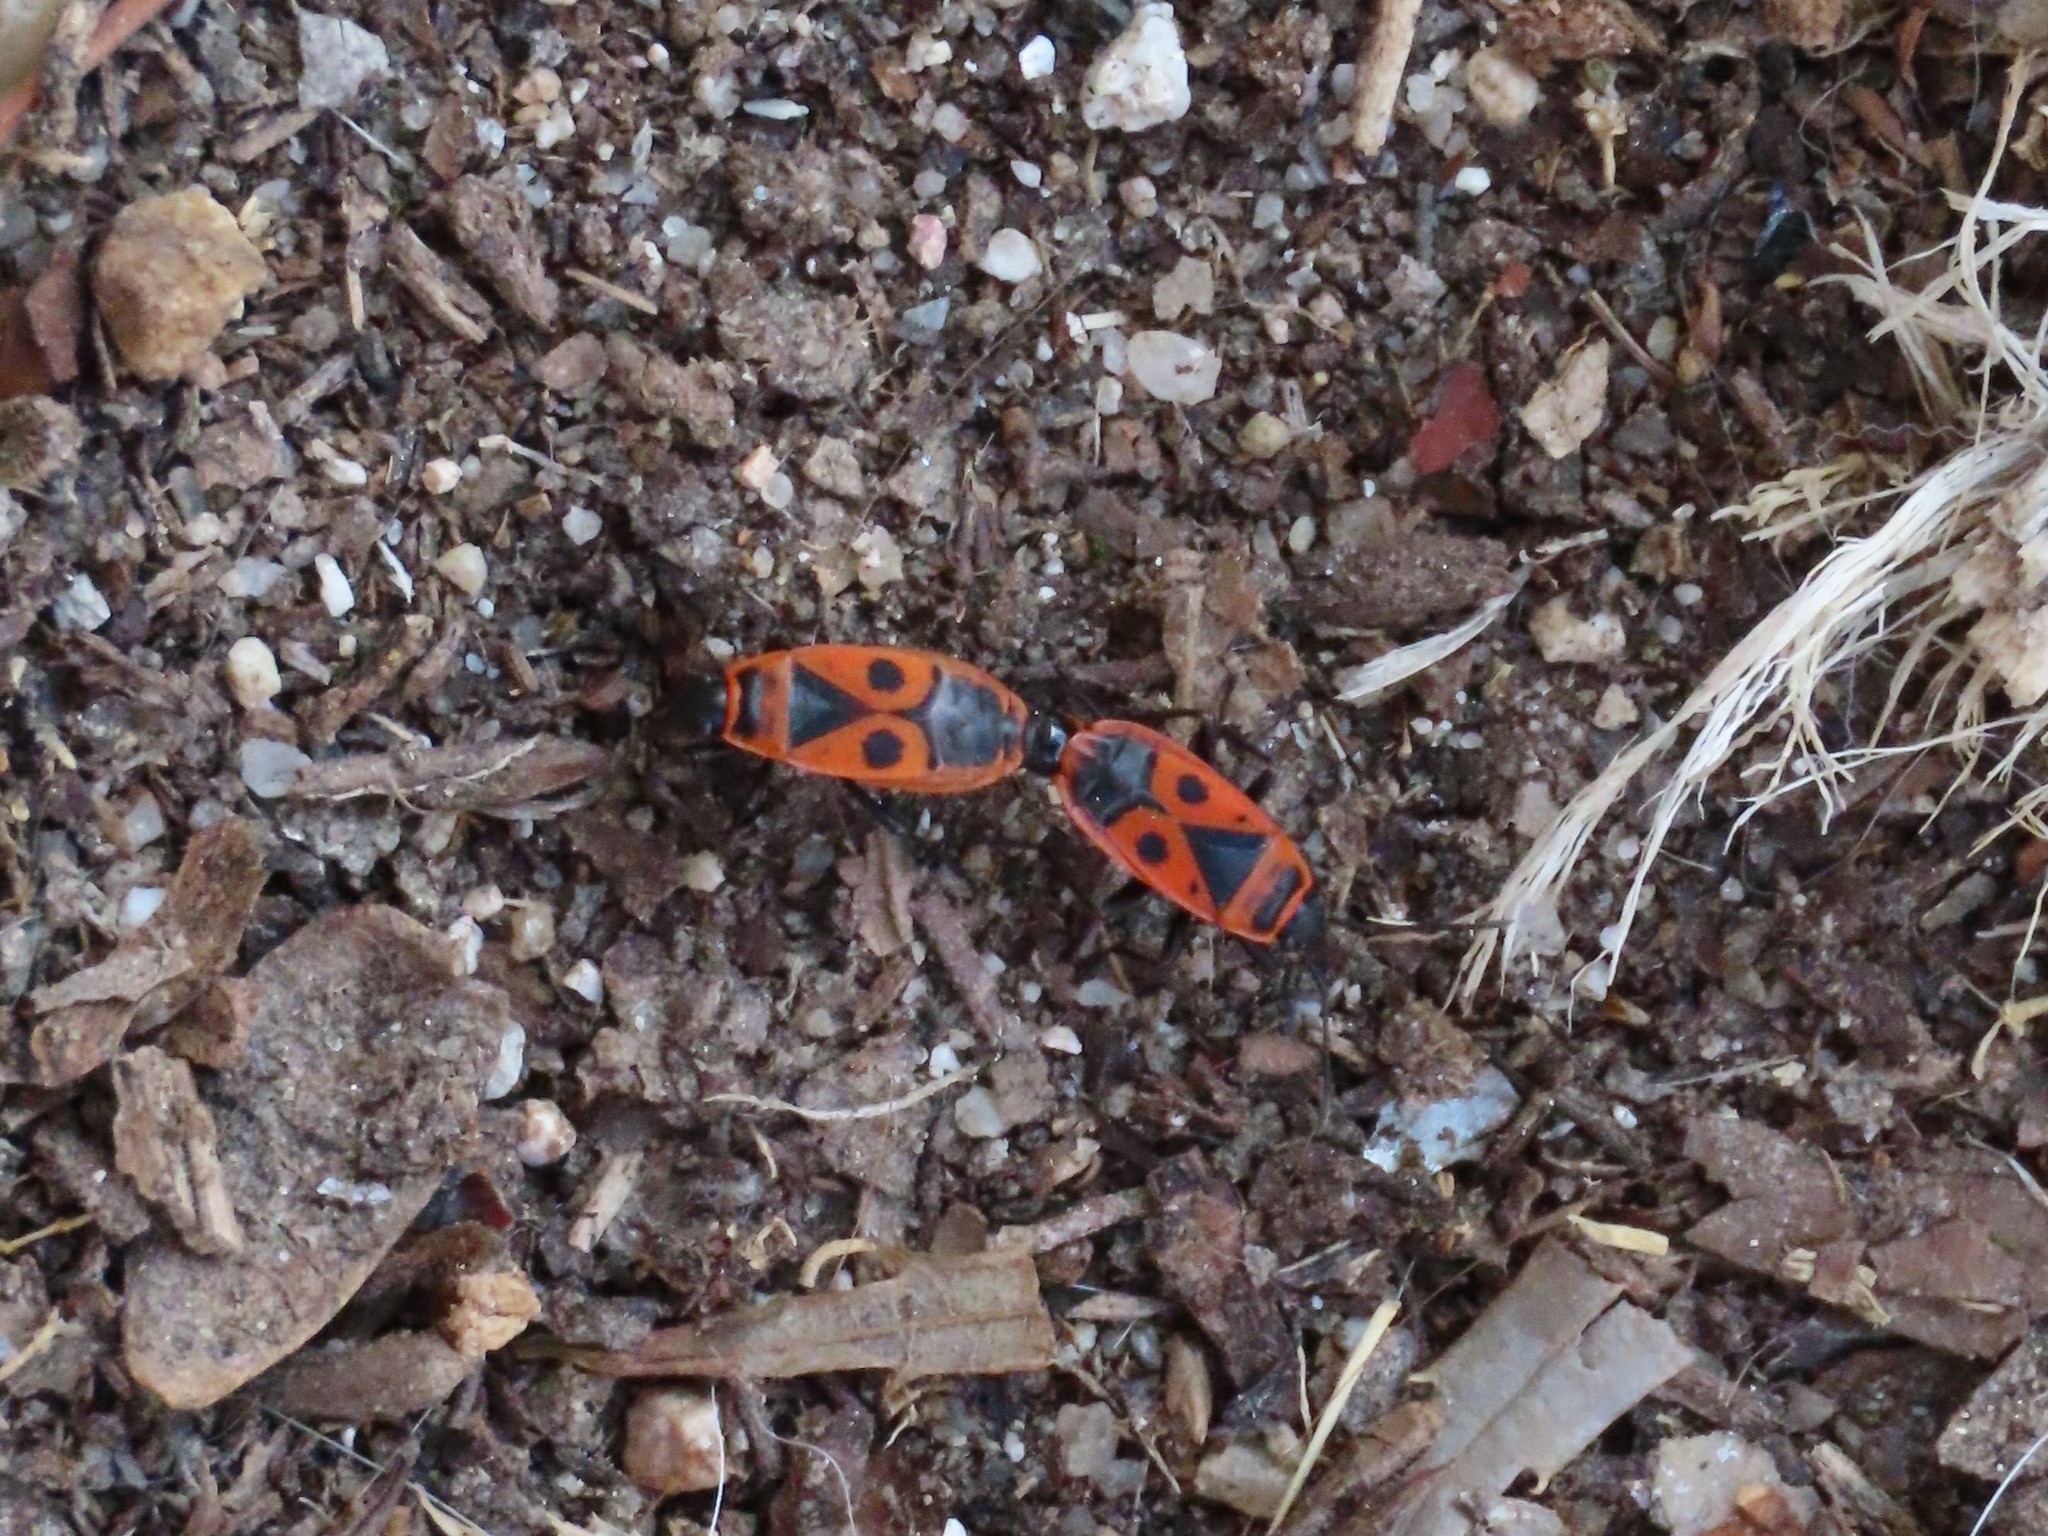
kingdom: Animalia
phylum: Arthropoda
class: Insecta
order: Hemiptera
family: Pyrrhocoridae
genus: Pyrrhocoris
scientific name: Pyrrhocoris apterus
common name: Firebug
